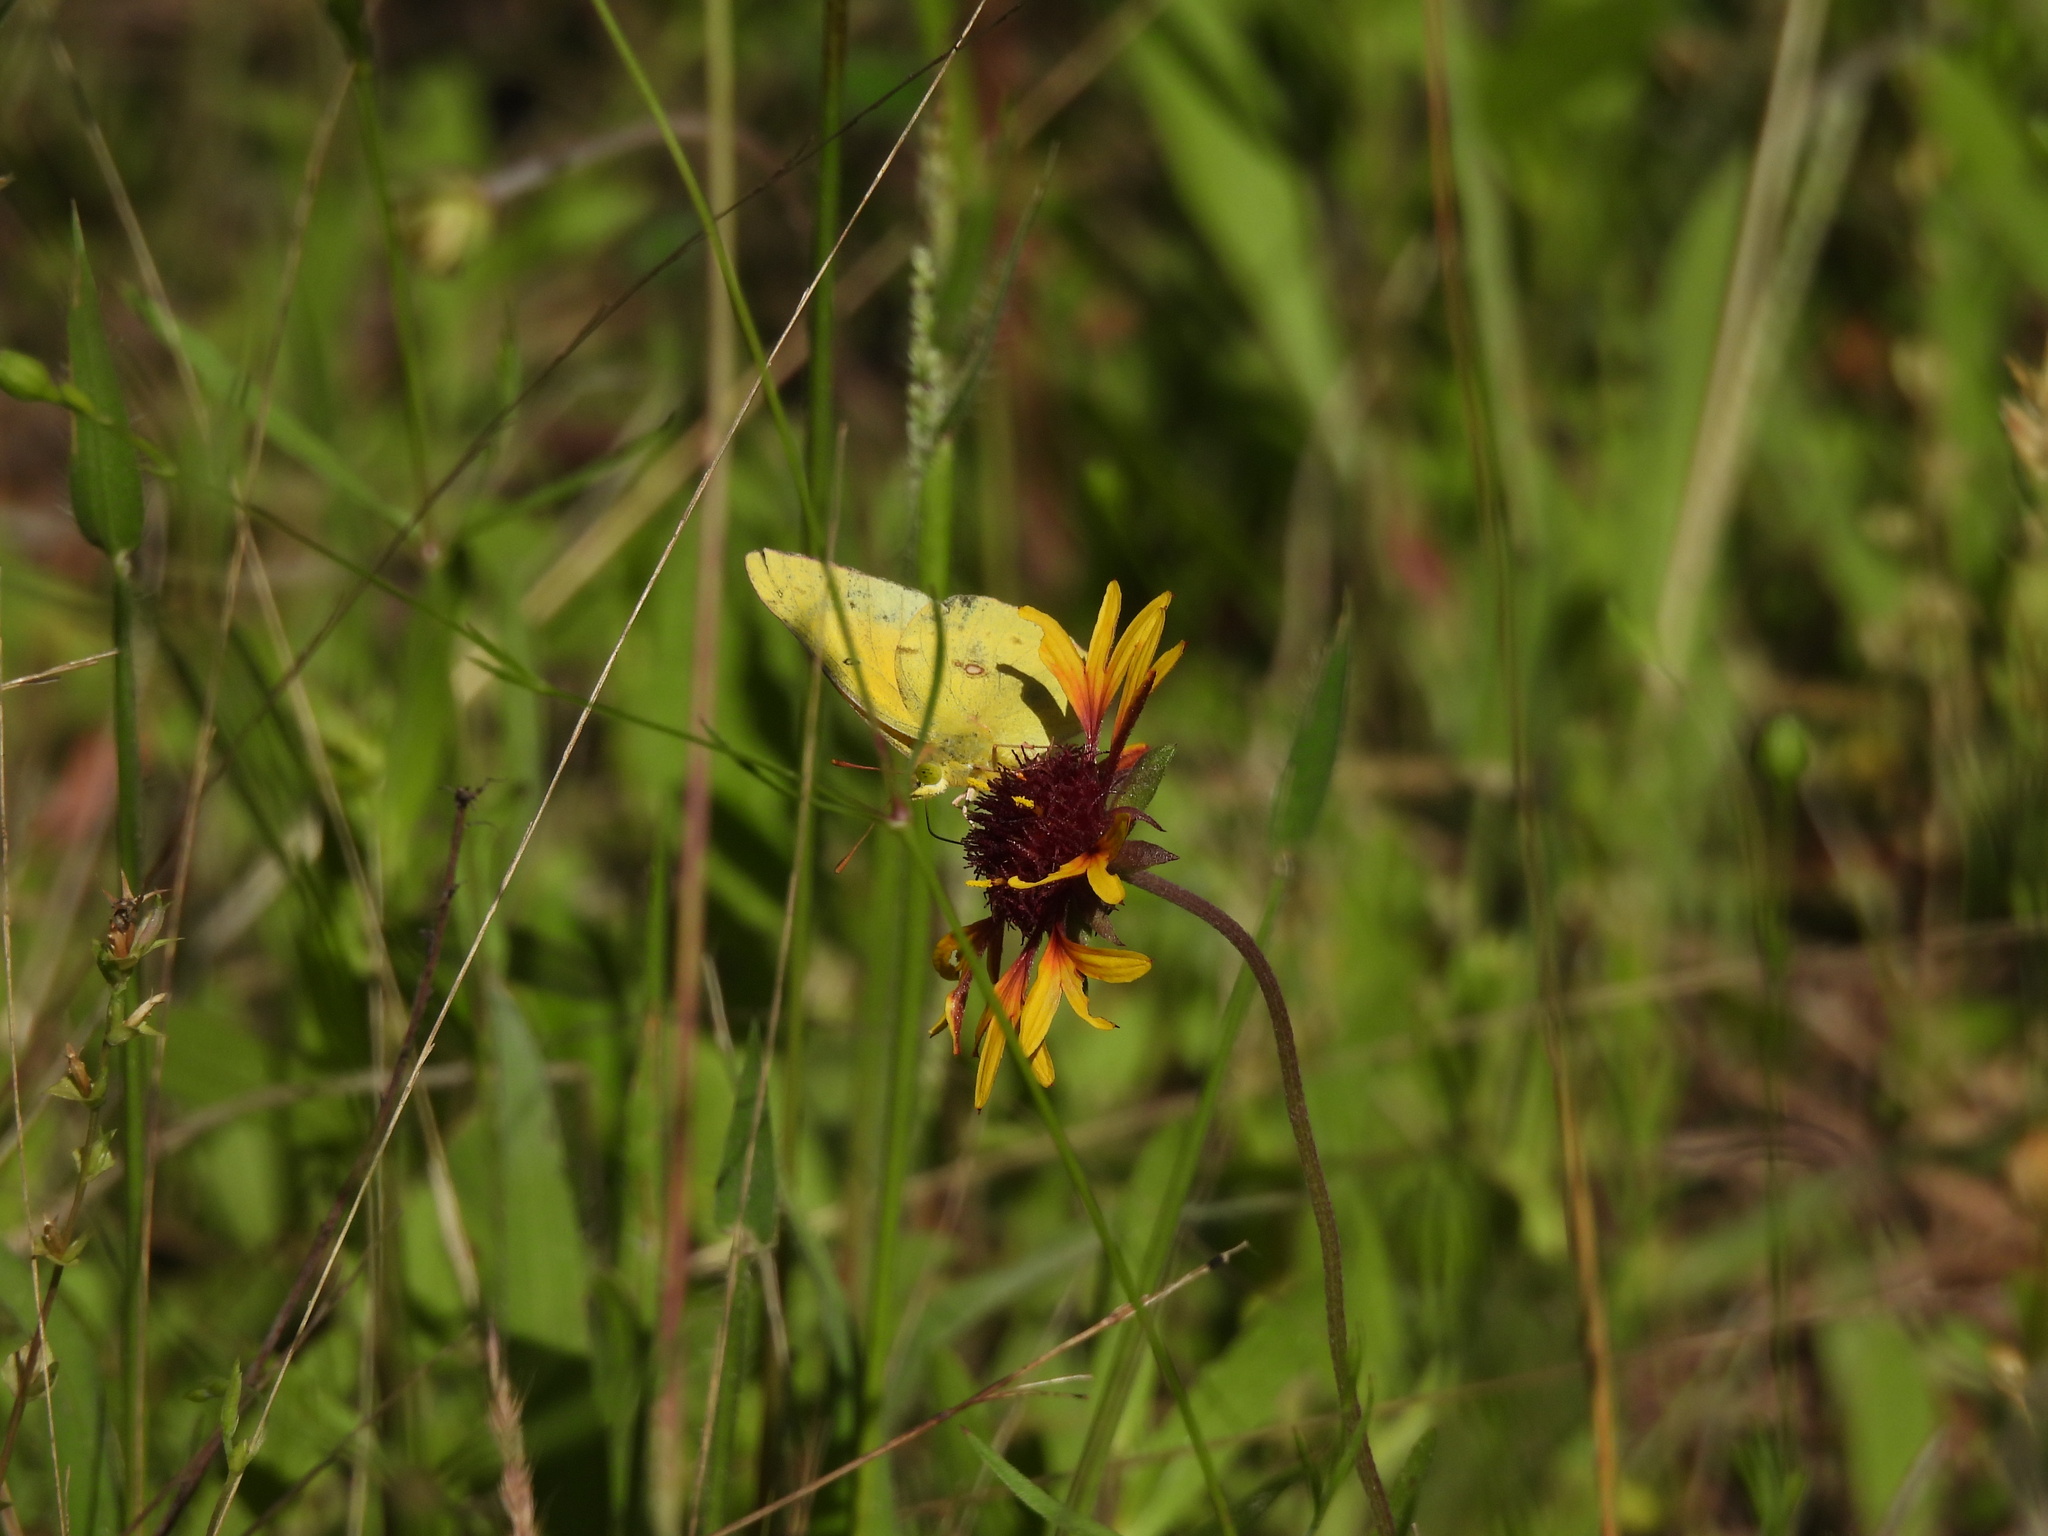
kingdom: Animalia
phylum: Arthropoda
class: Insecta
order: Lepidoptera
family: Pieridae
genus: Colias
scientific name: Colias eurytheme
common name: Alfalfa butterfly
